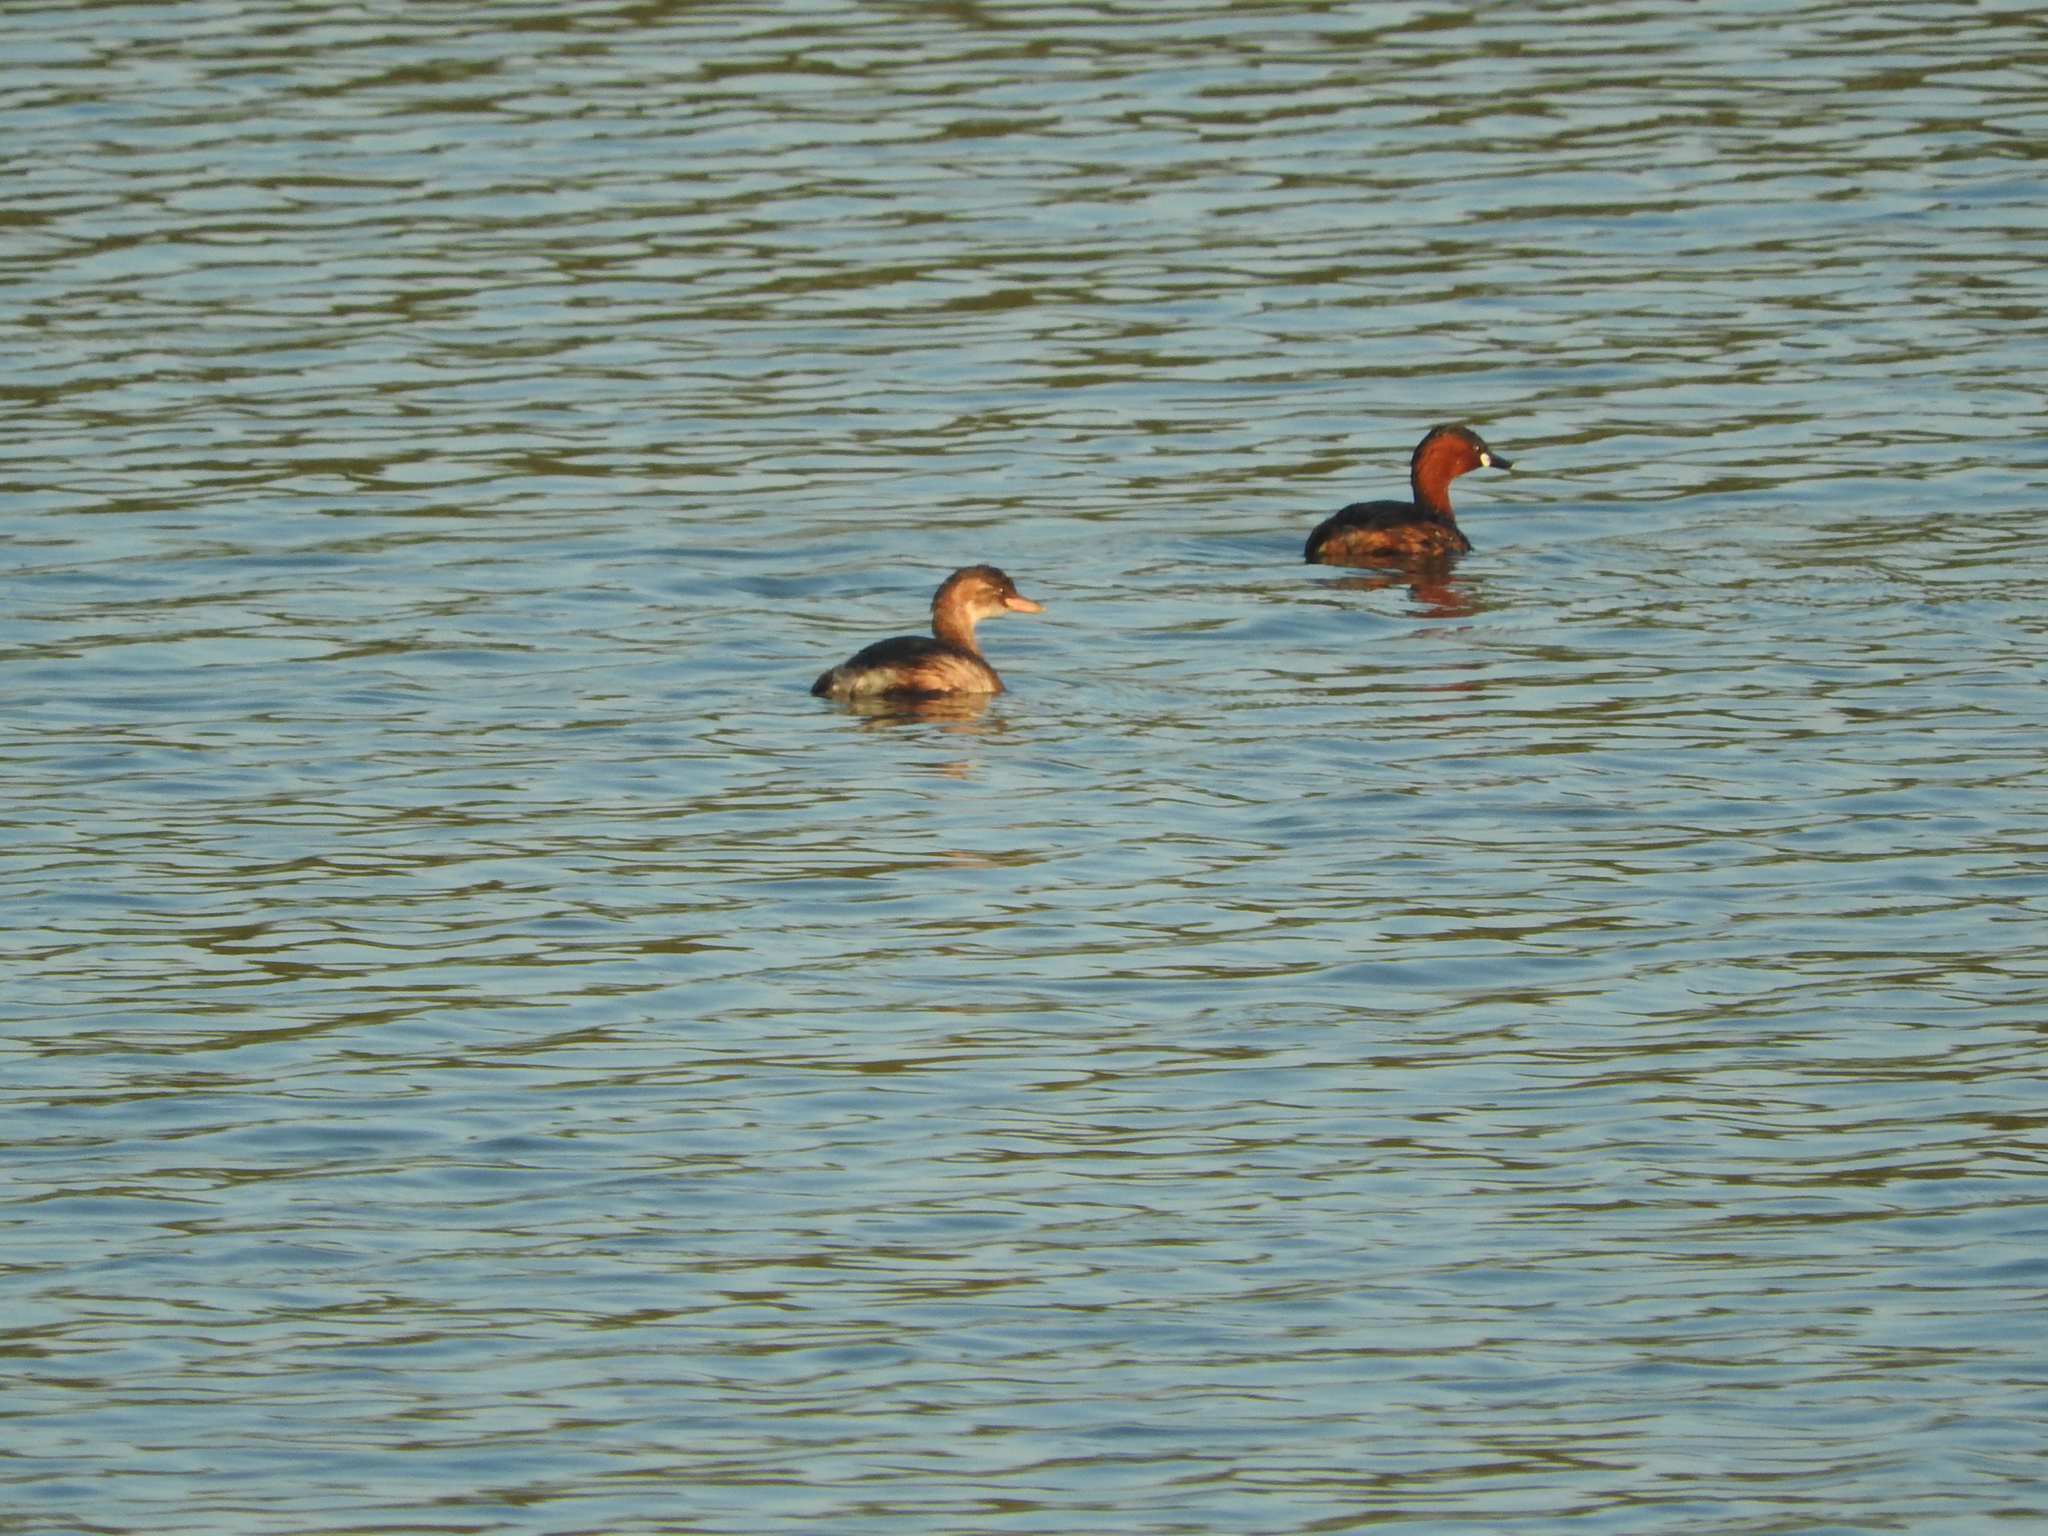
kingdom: Animalia
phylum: Chordata
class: Aves
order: Podicipediformes
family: Podicipedidae
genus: Tachybaptus
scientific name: Tachybaptus ruficollis
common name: Little grebe
